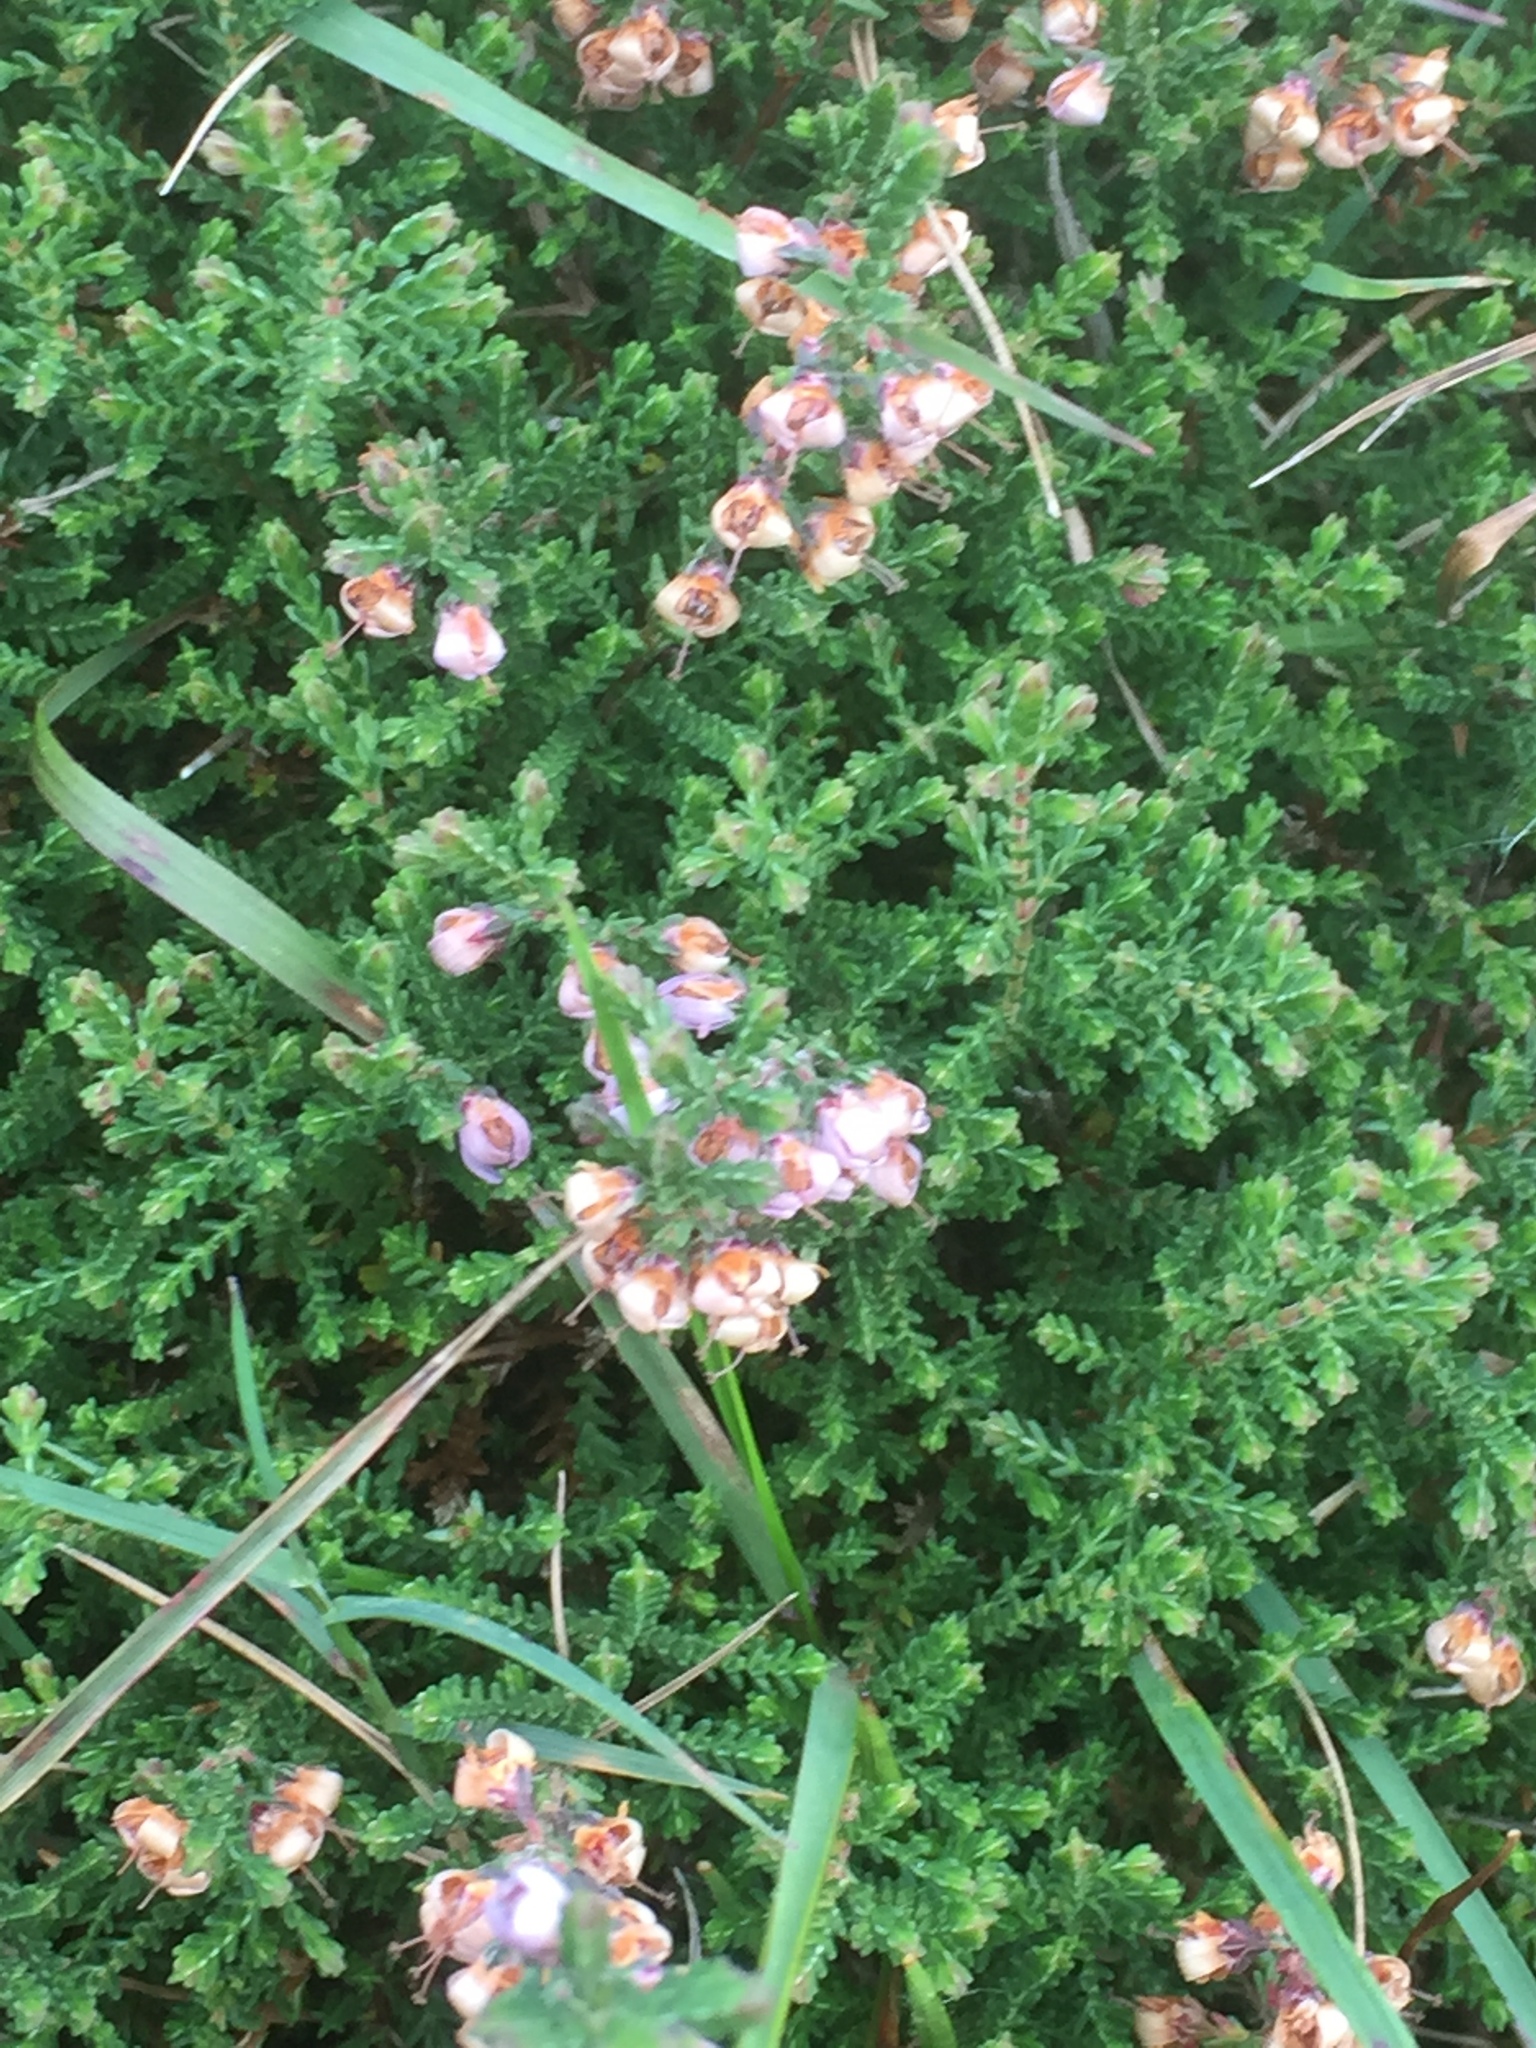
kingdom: Plantae
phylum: Tracheophyta
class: Magnoliopsida
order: Ericales
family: Ericaceae
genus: Calluna
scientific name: Calluna vulgaris
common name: Heather
